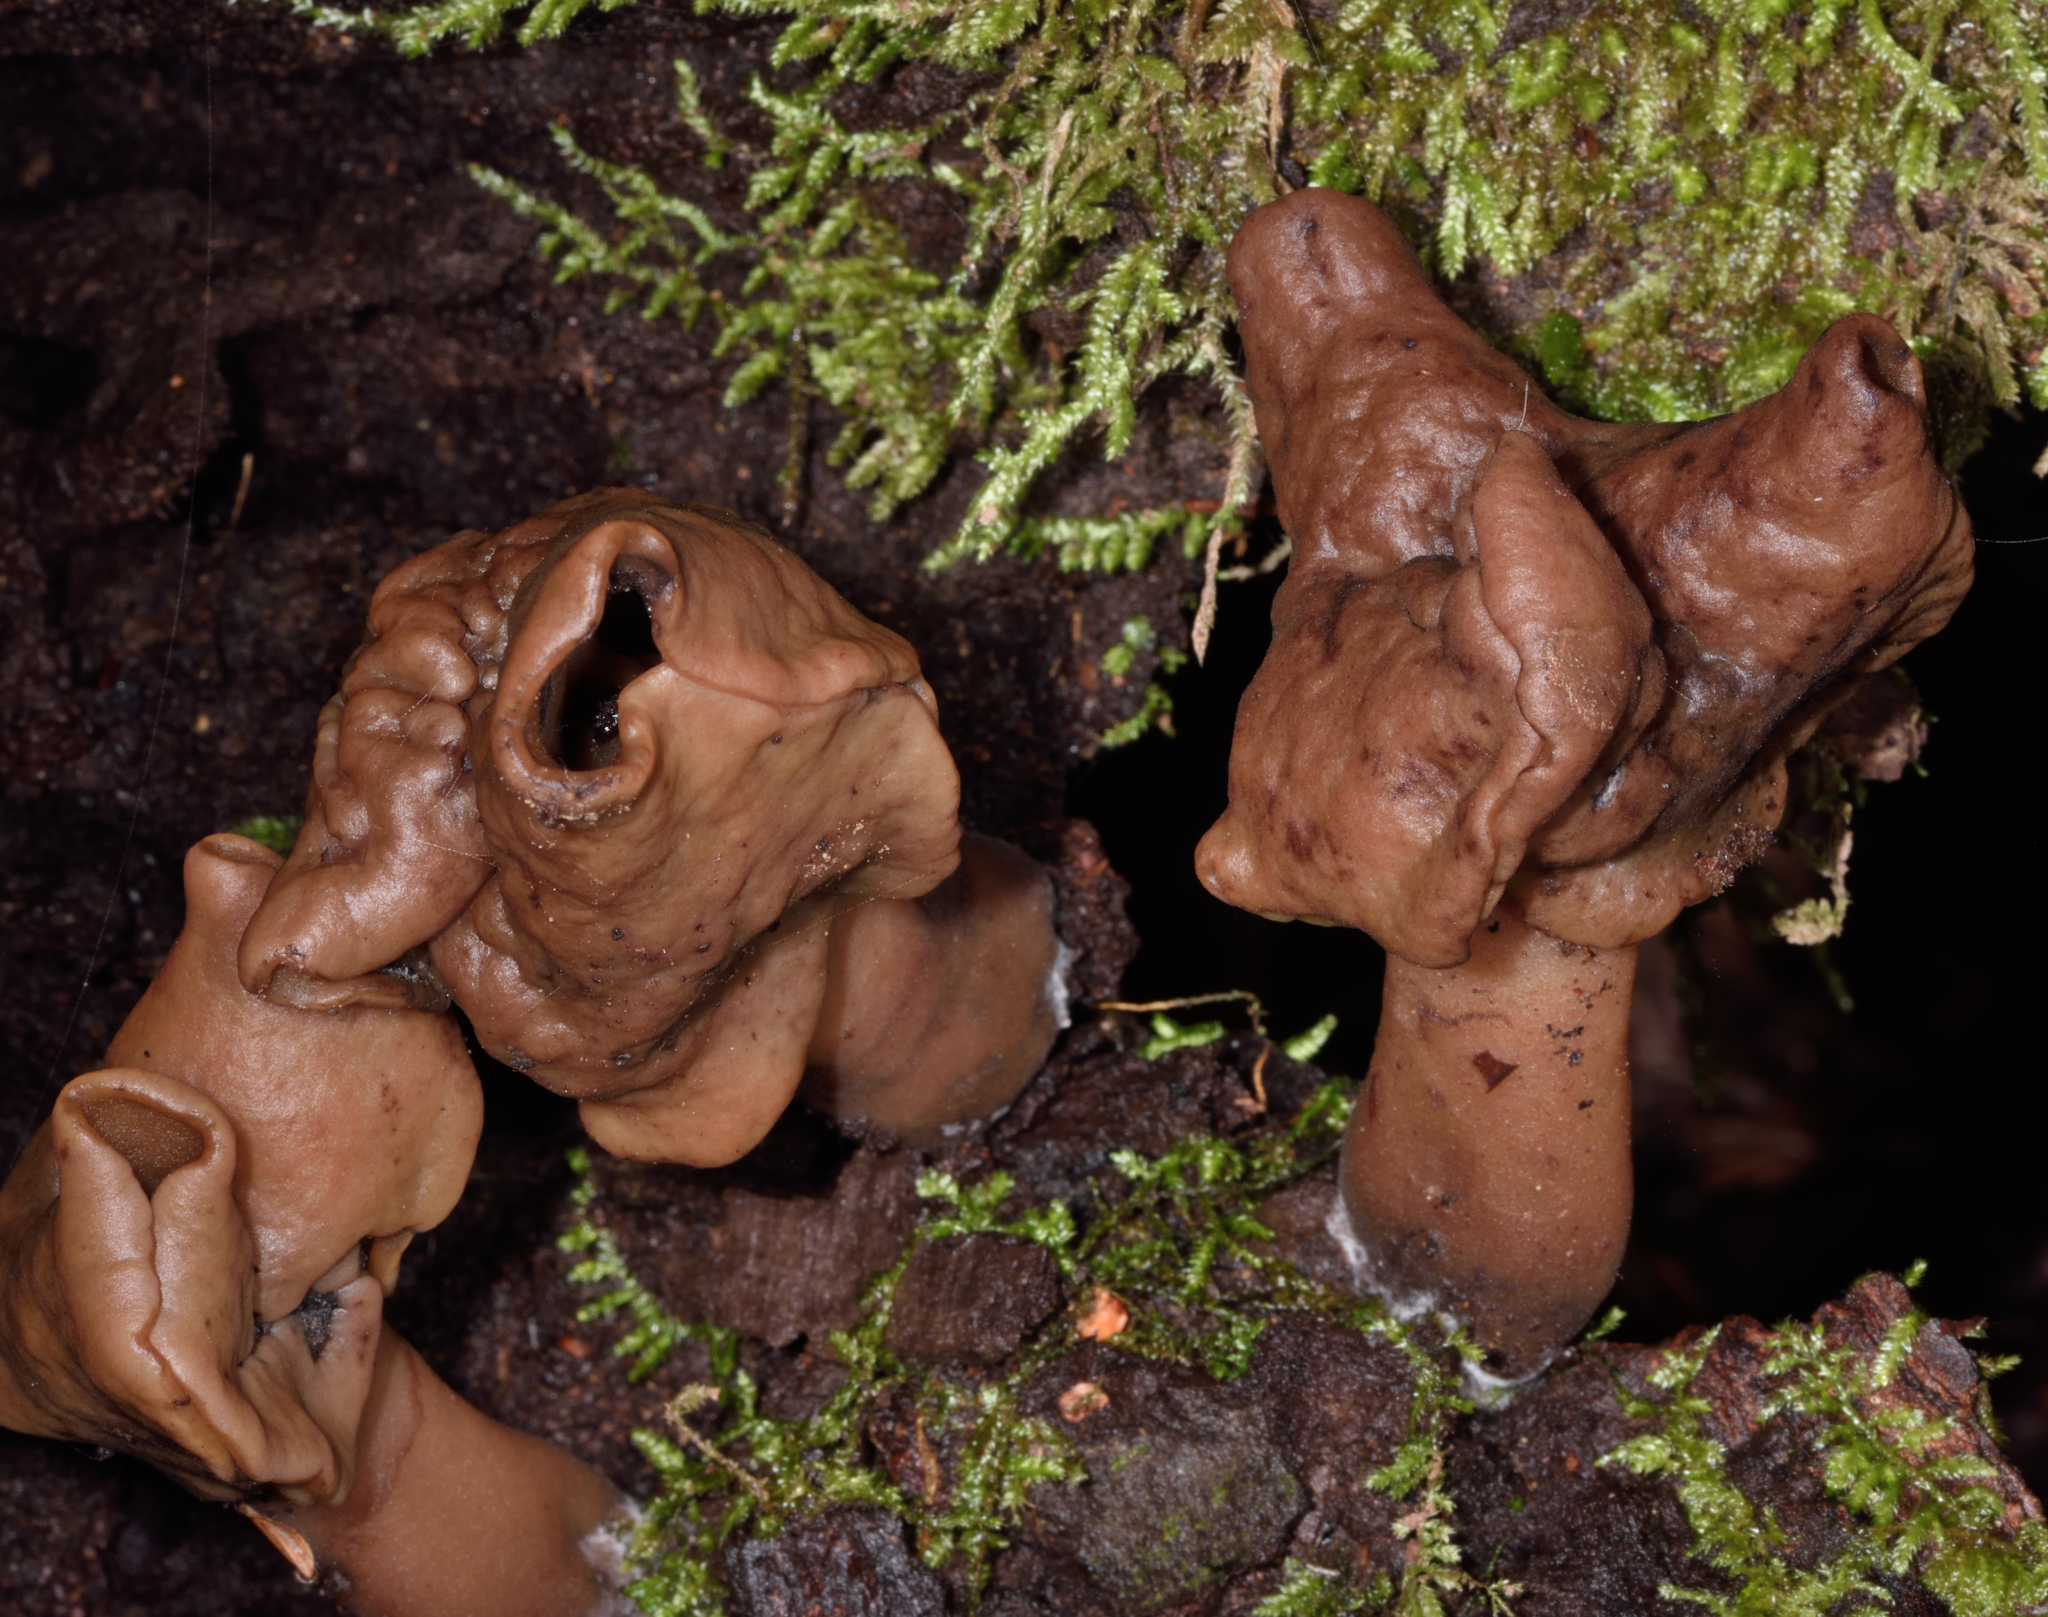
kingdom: Fungi
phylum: Ascomycota
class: Pezizomycetes
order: Pezizales
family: Discinaceae
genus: Gyromitra
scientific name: Gyromitra infula
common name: Pouched false morel
